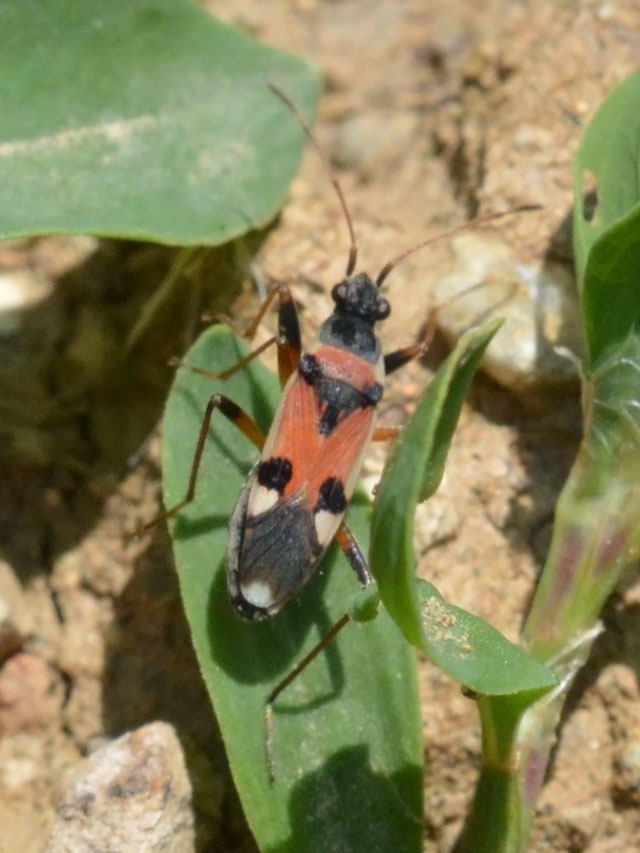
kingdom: Animalia
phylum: Arthropoda
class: Insecta
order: Hemiptera
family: Rhyparochromidae
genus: Beosus
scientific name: Beosus quadripunctatus
